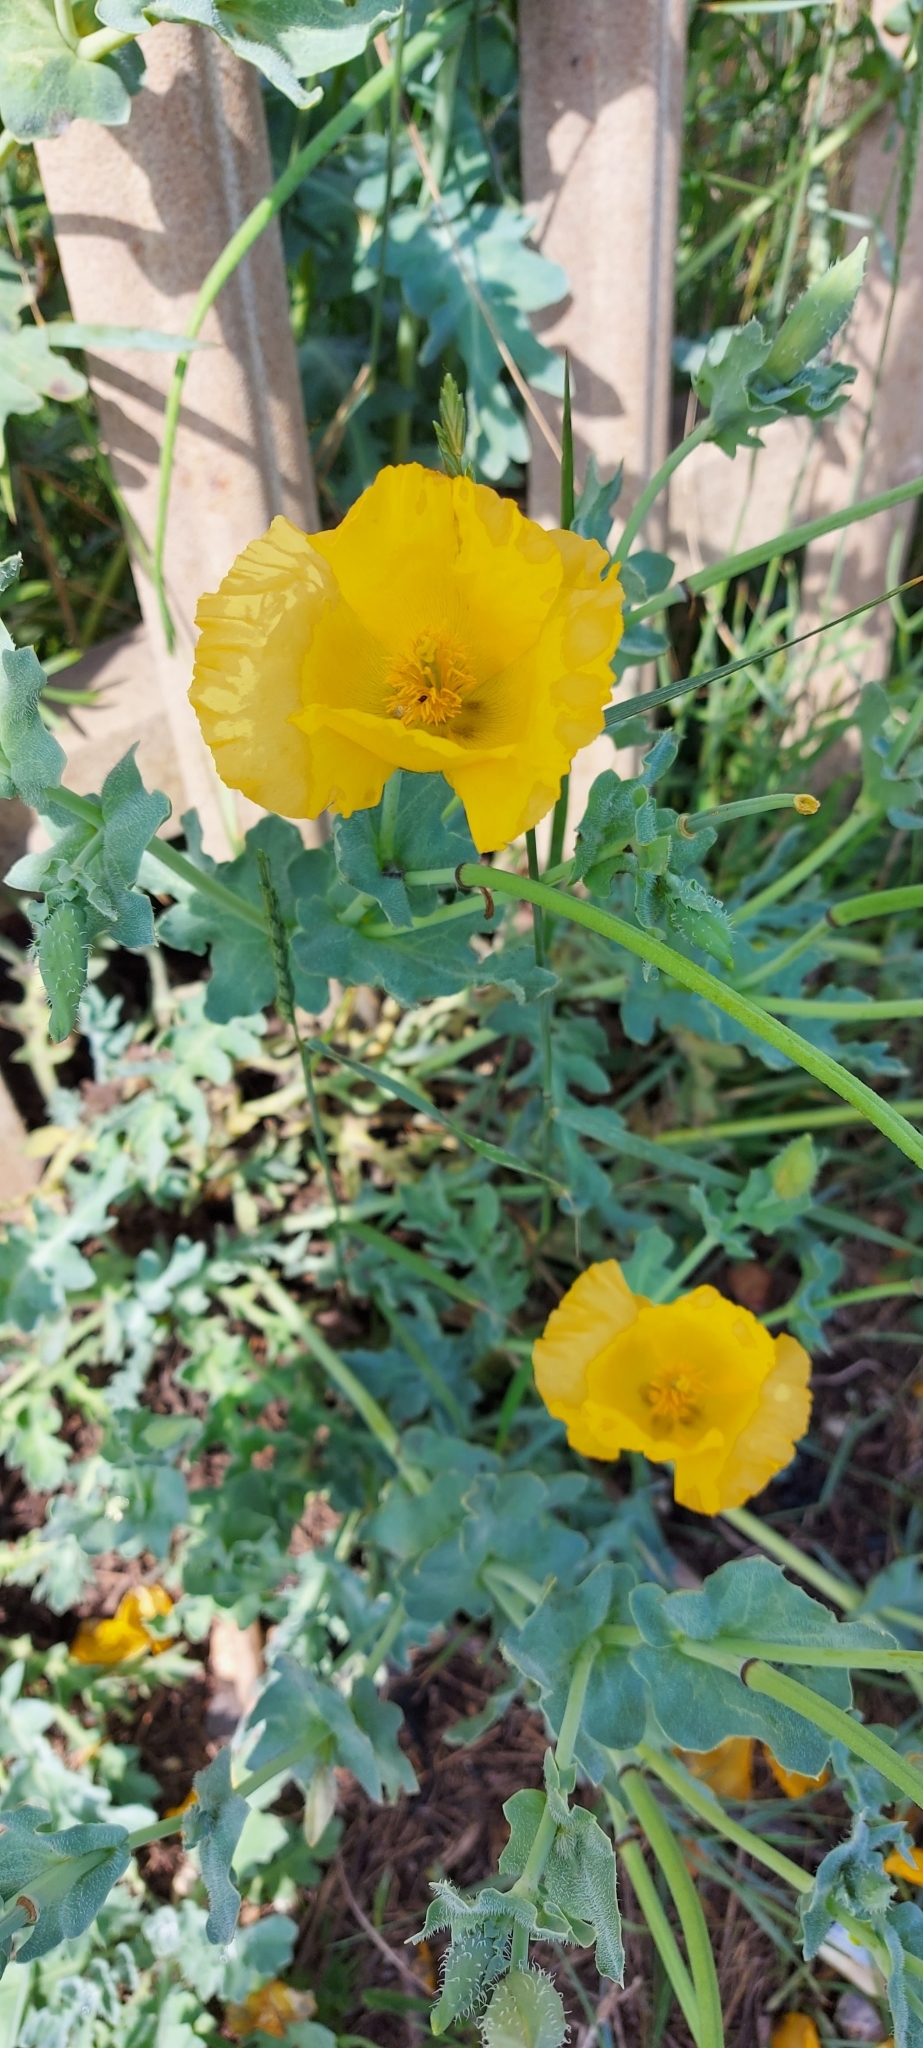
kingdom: Plantae
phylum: Tracheophyta
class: Magnoliopsida
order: Ranunculales
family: Papaveraceae
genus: Glaucium
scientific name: Glaucium flavum
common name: Yellow horned-poppy
